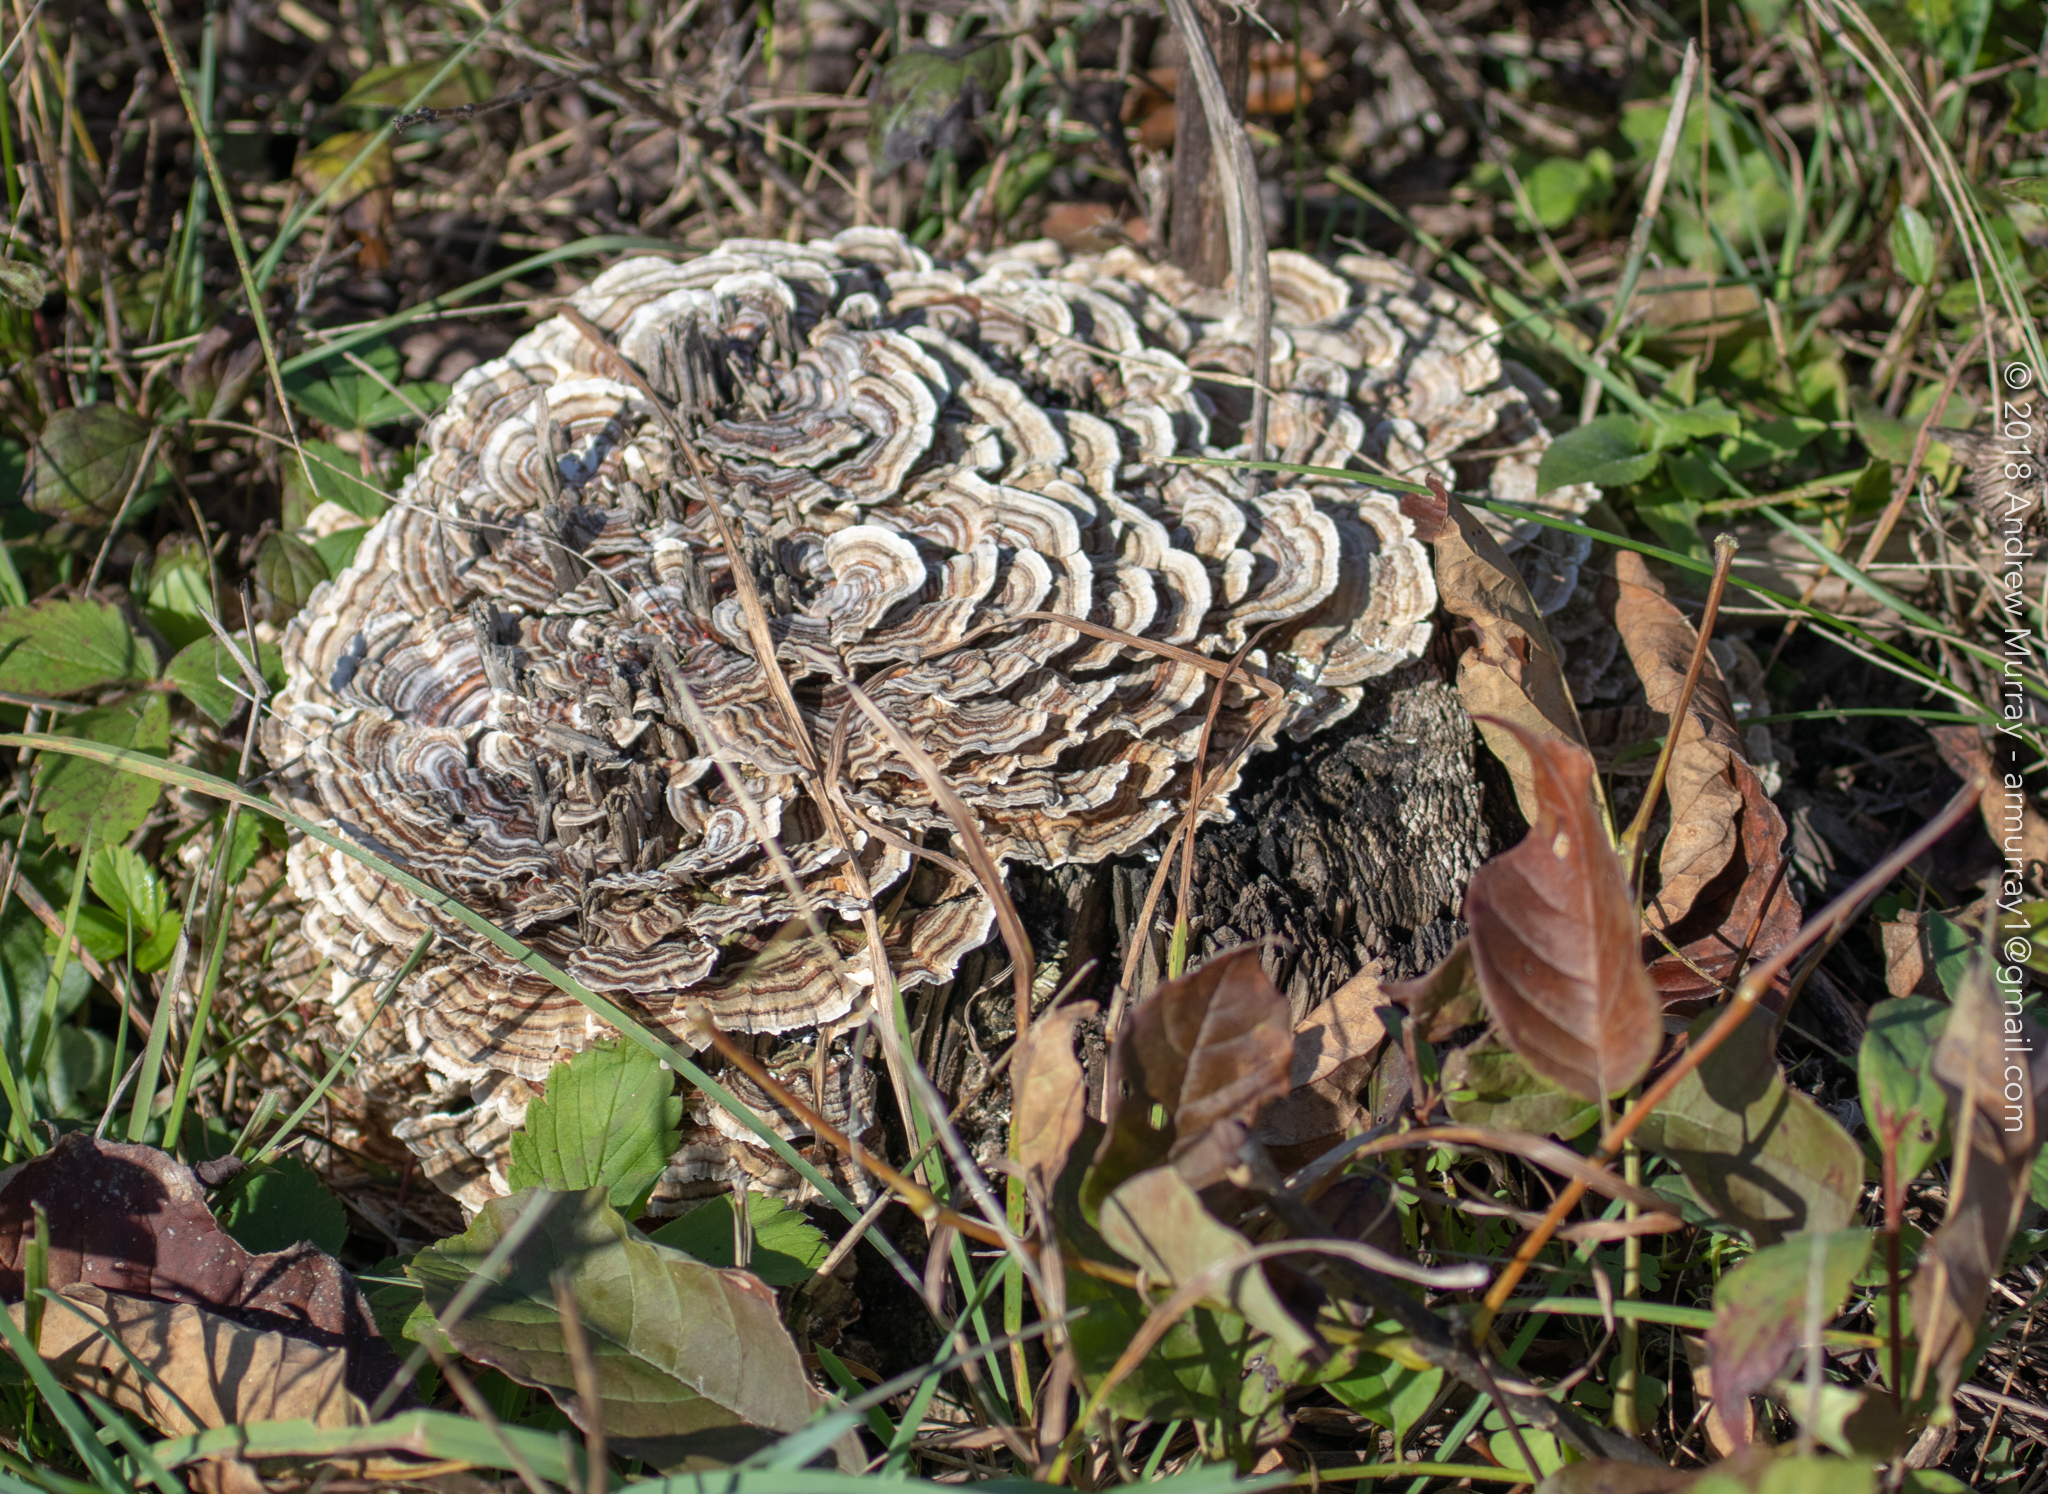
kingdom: Fungi
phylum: Basidiomycota
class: Agaricomycetes
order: Polyporales
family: Polyporaceae
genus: Trametes
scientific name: Trametes versicolor
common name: Turkeytail
